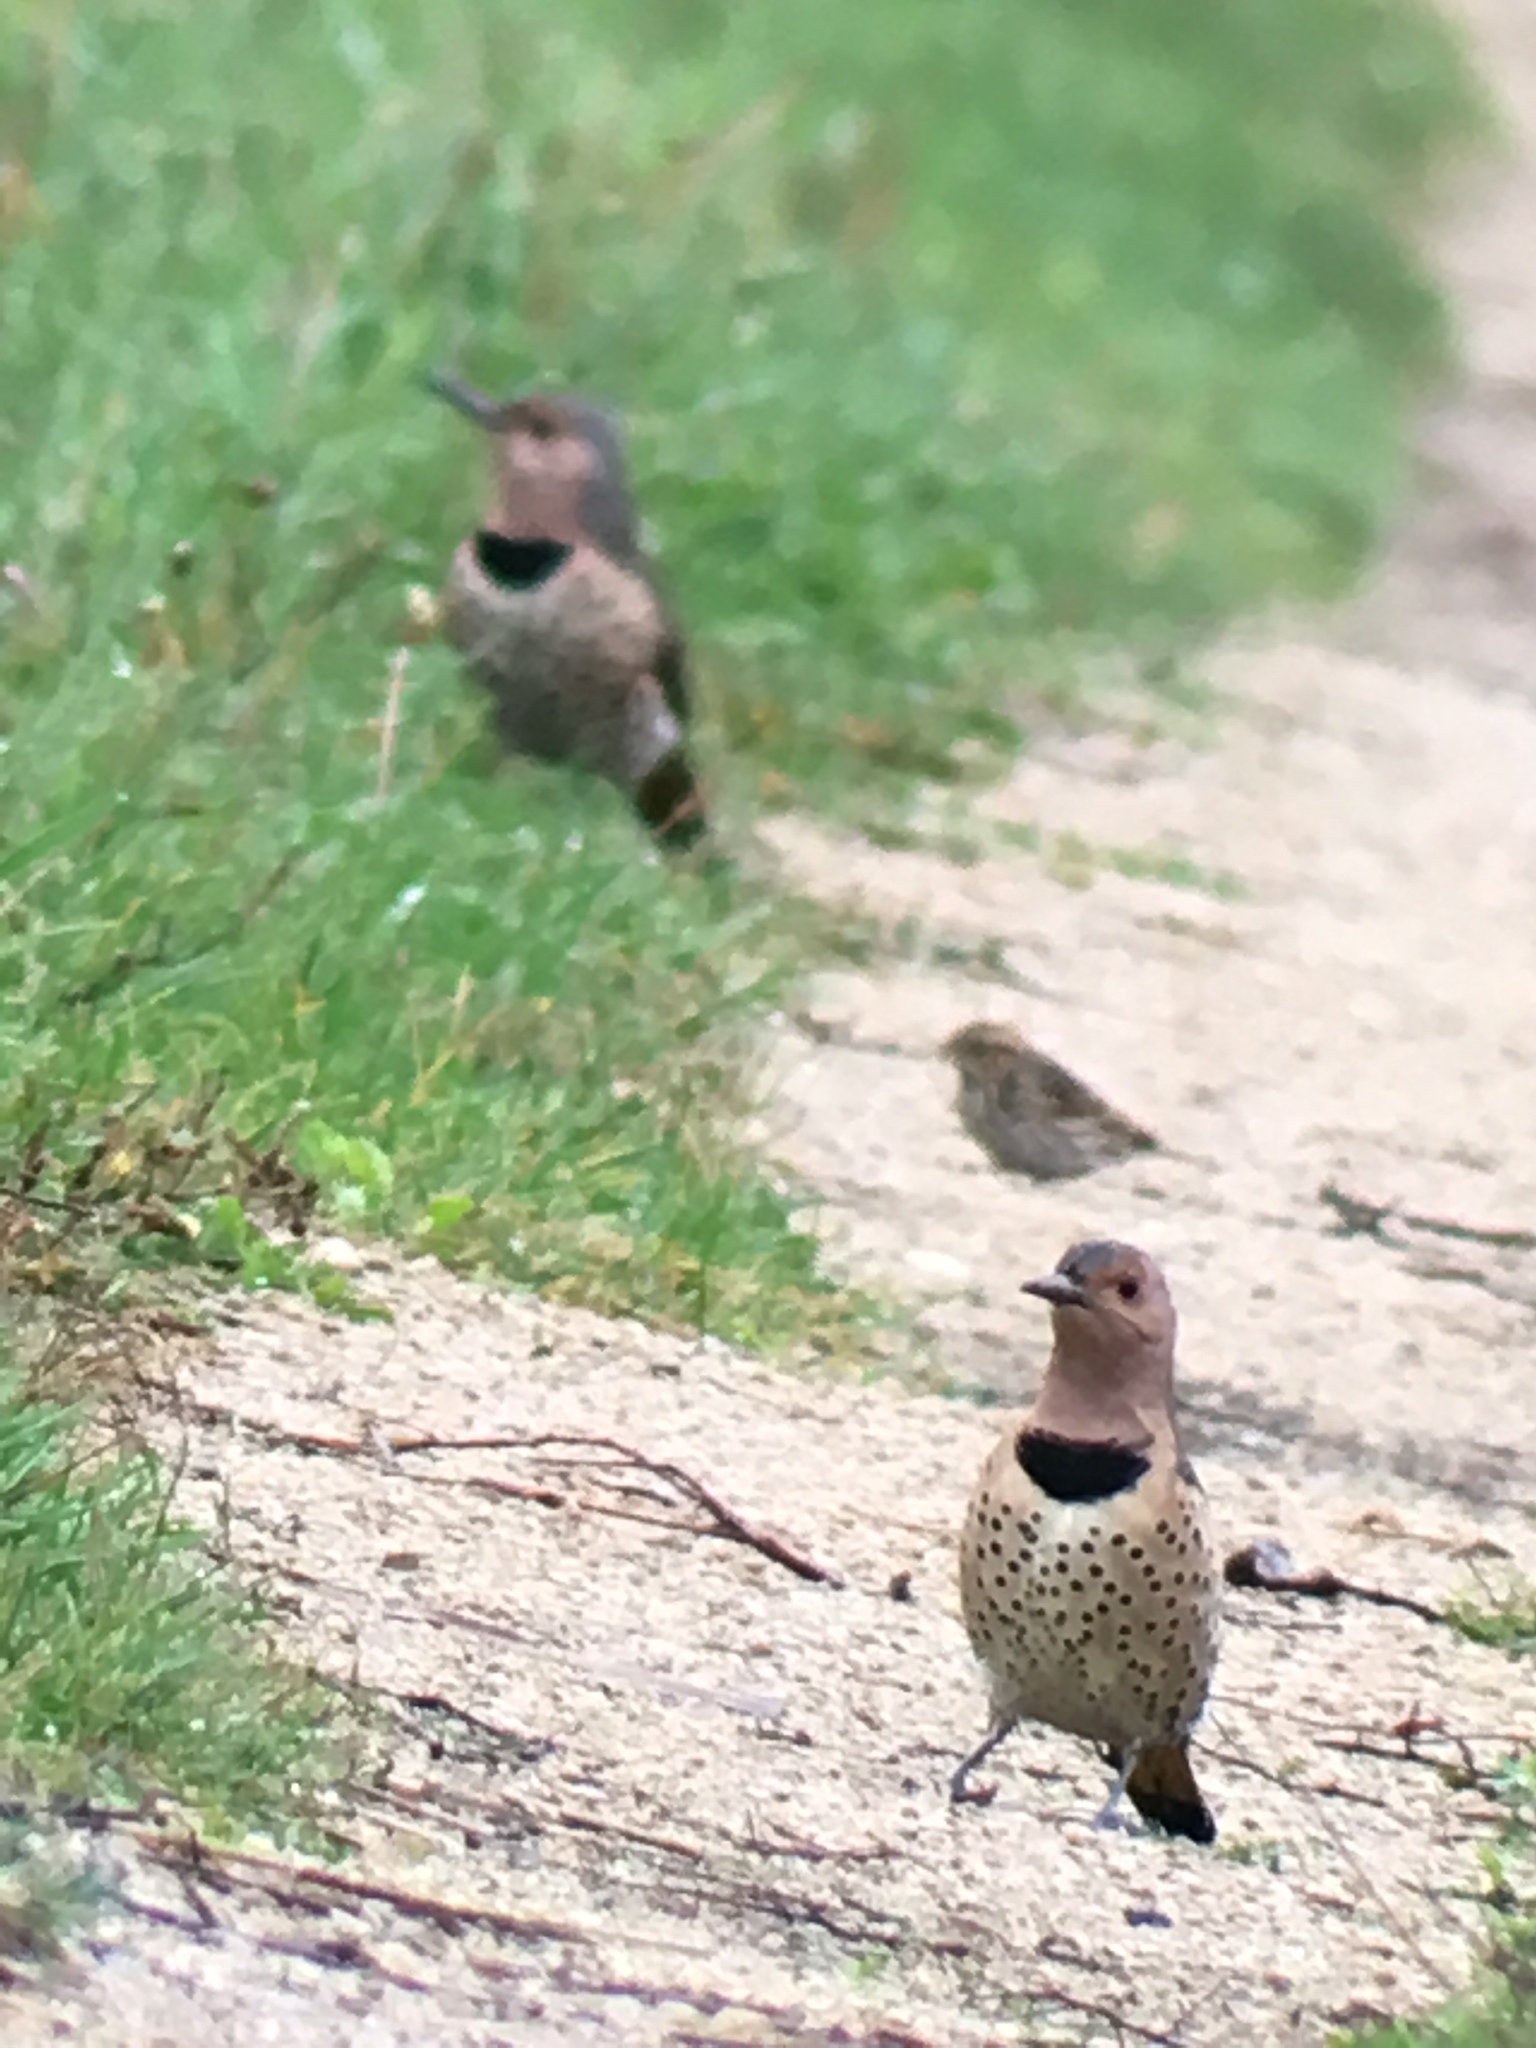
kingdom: Animalia
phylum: Chordata
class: Aves
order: Piciformes
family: Picidae
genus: Colaptes
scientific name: Colaptes auratus
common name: Northern flicker
